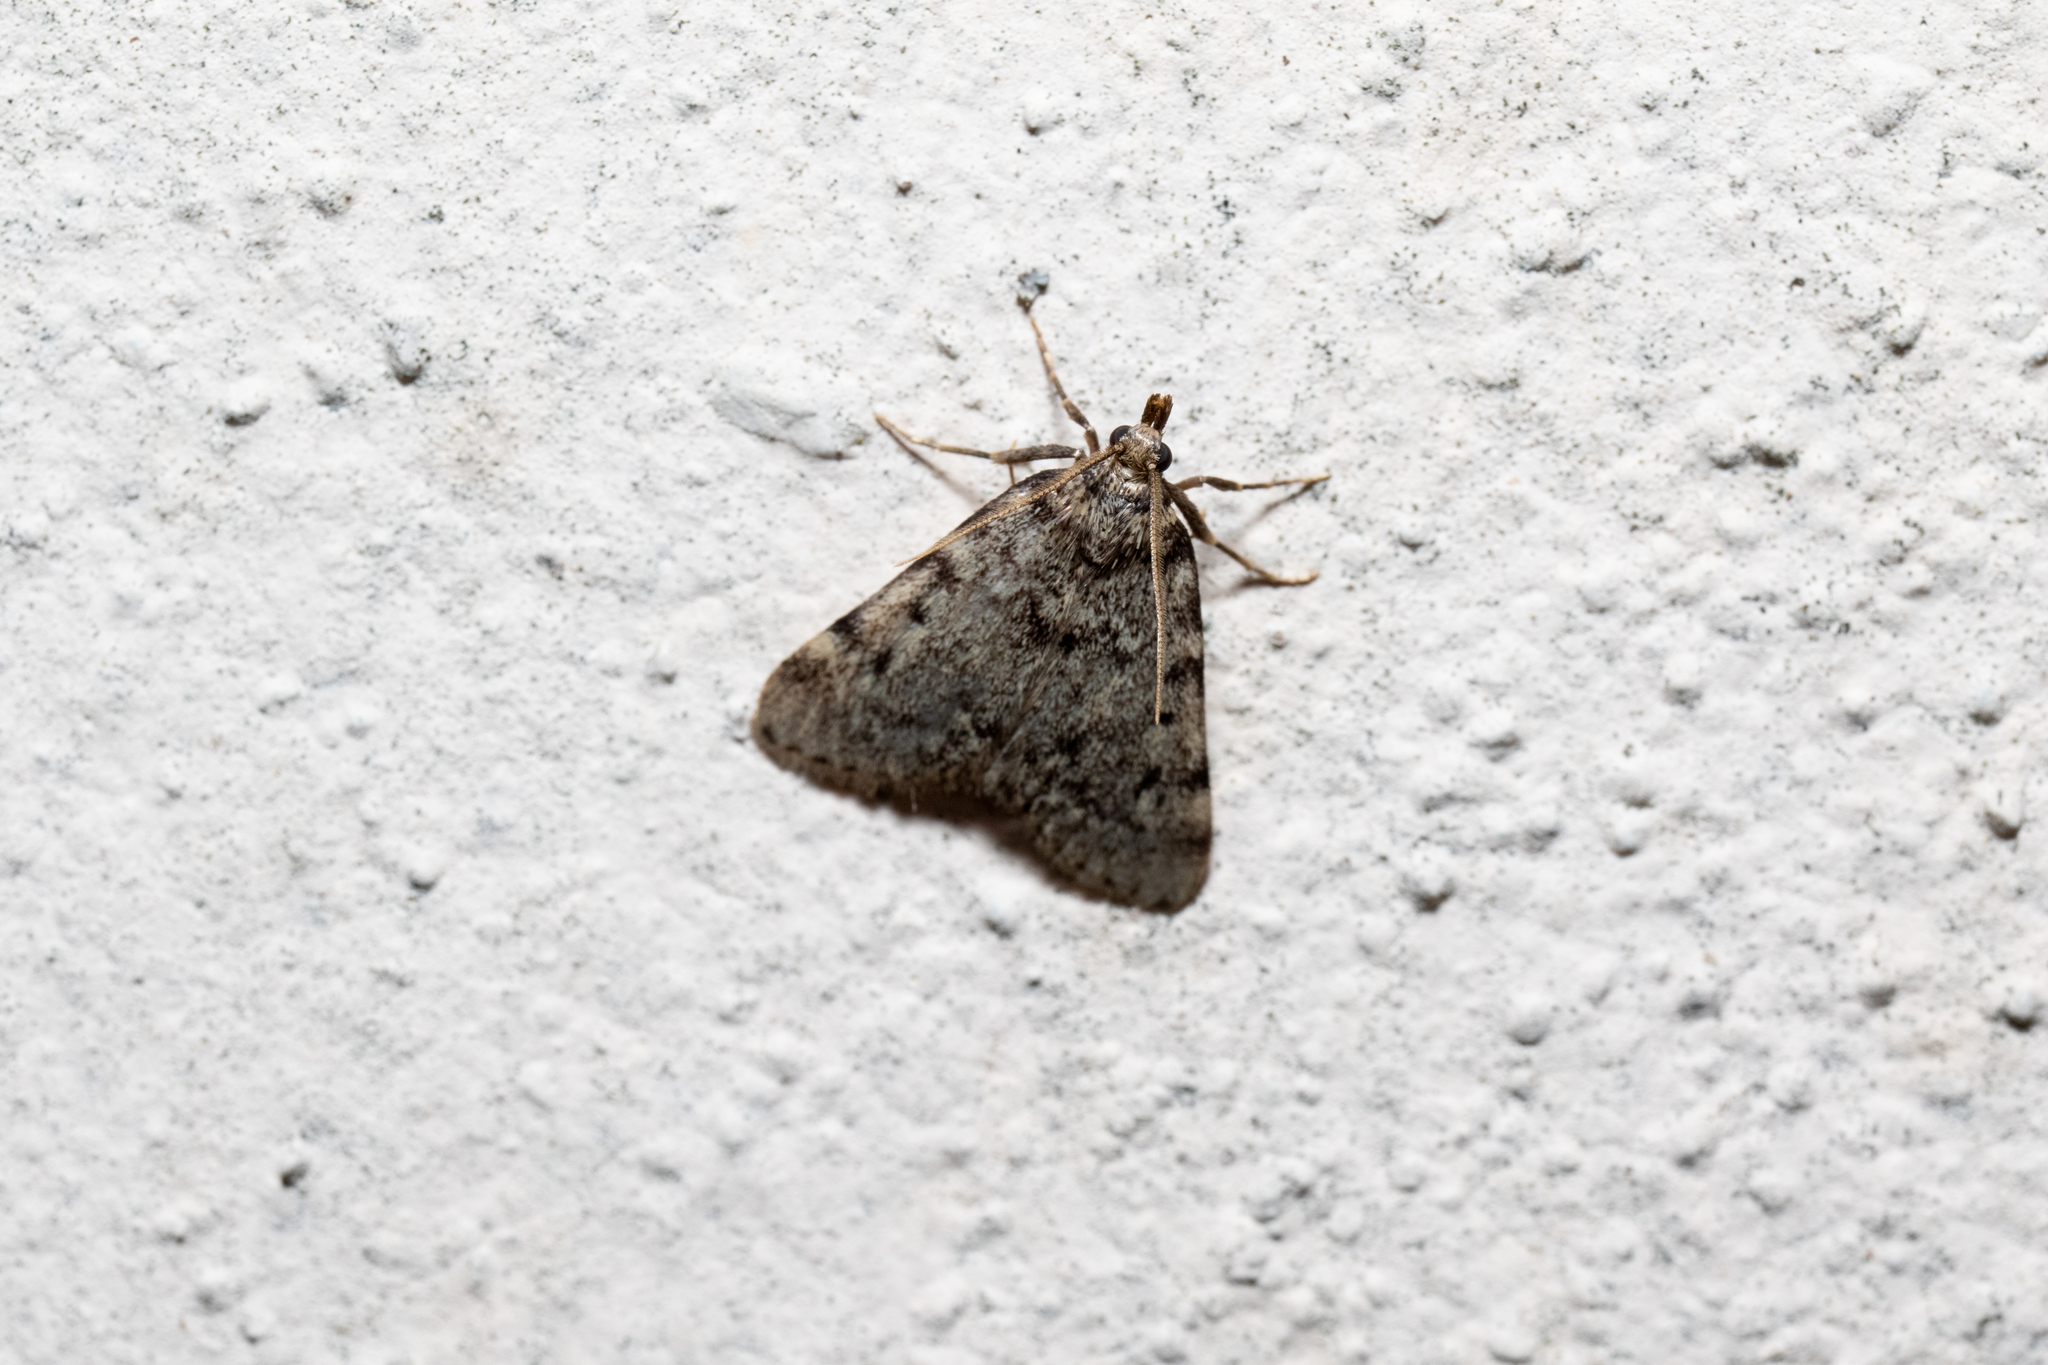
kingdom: Animalia
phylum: Arthropoda
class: Insecta
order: Lepidoptera
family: Pyralidae
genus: Aglossa
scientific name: Aglossa pinguinalis
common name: Large tabby
